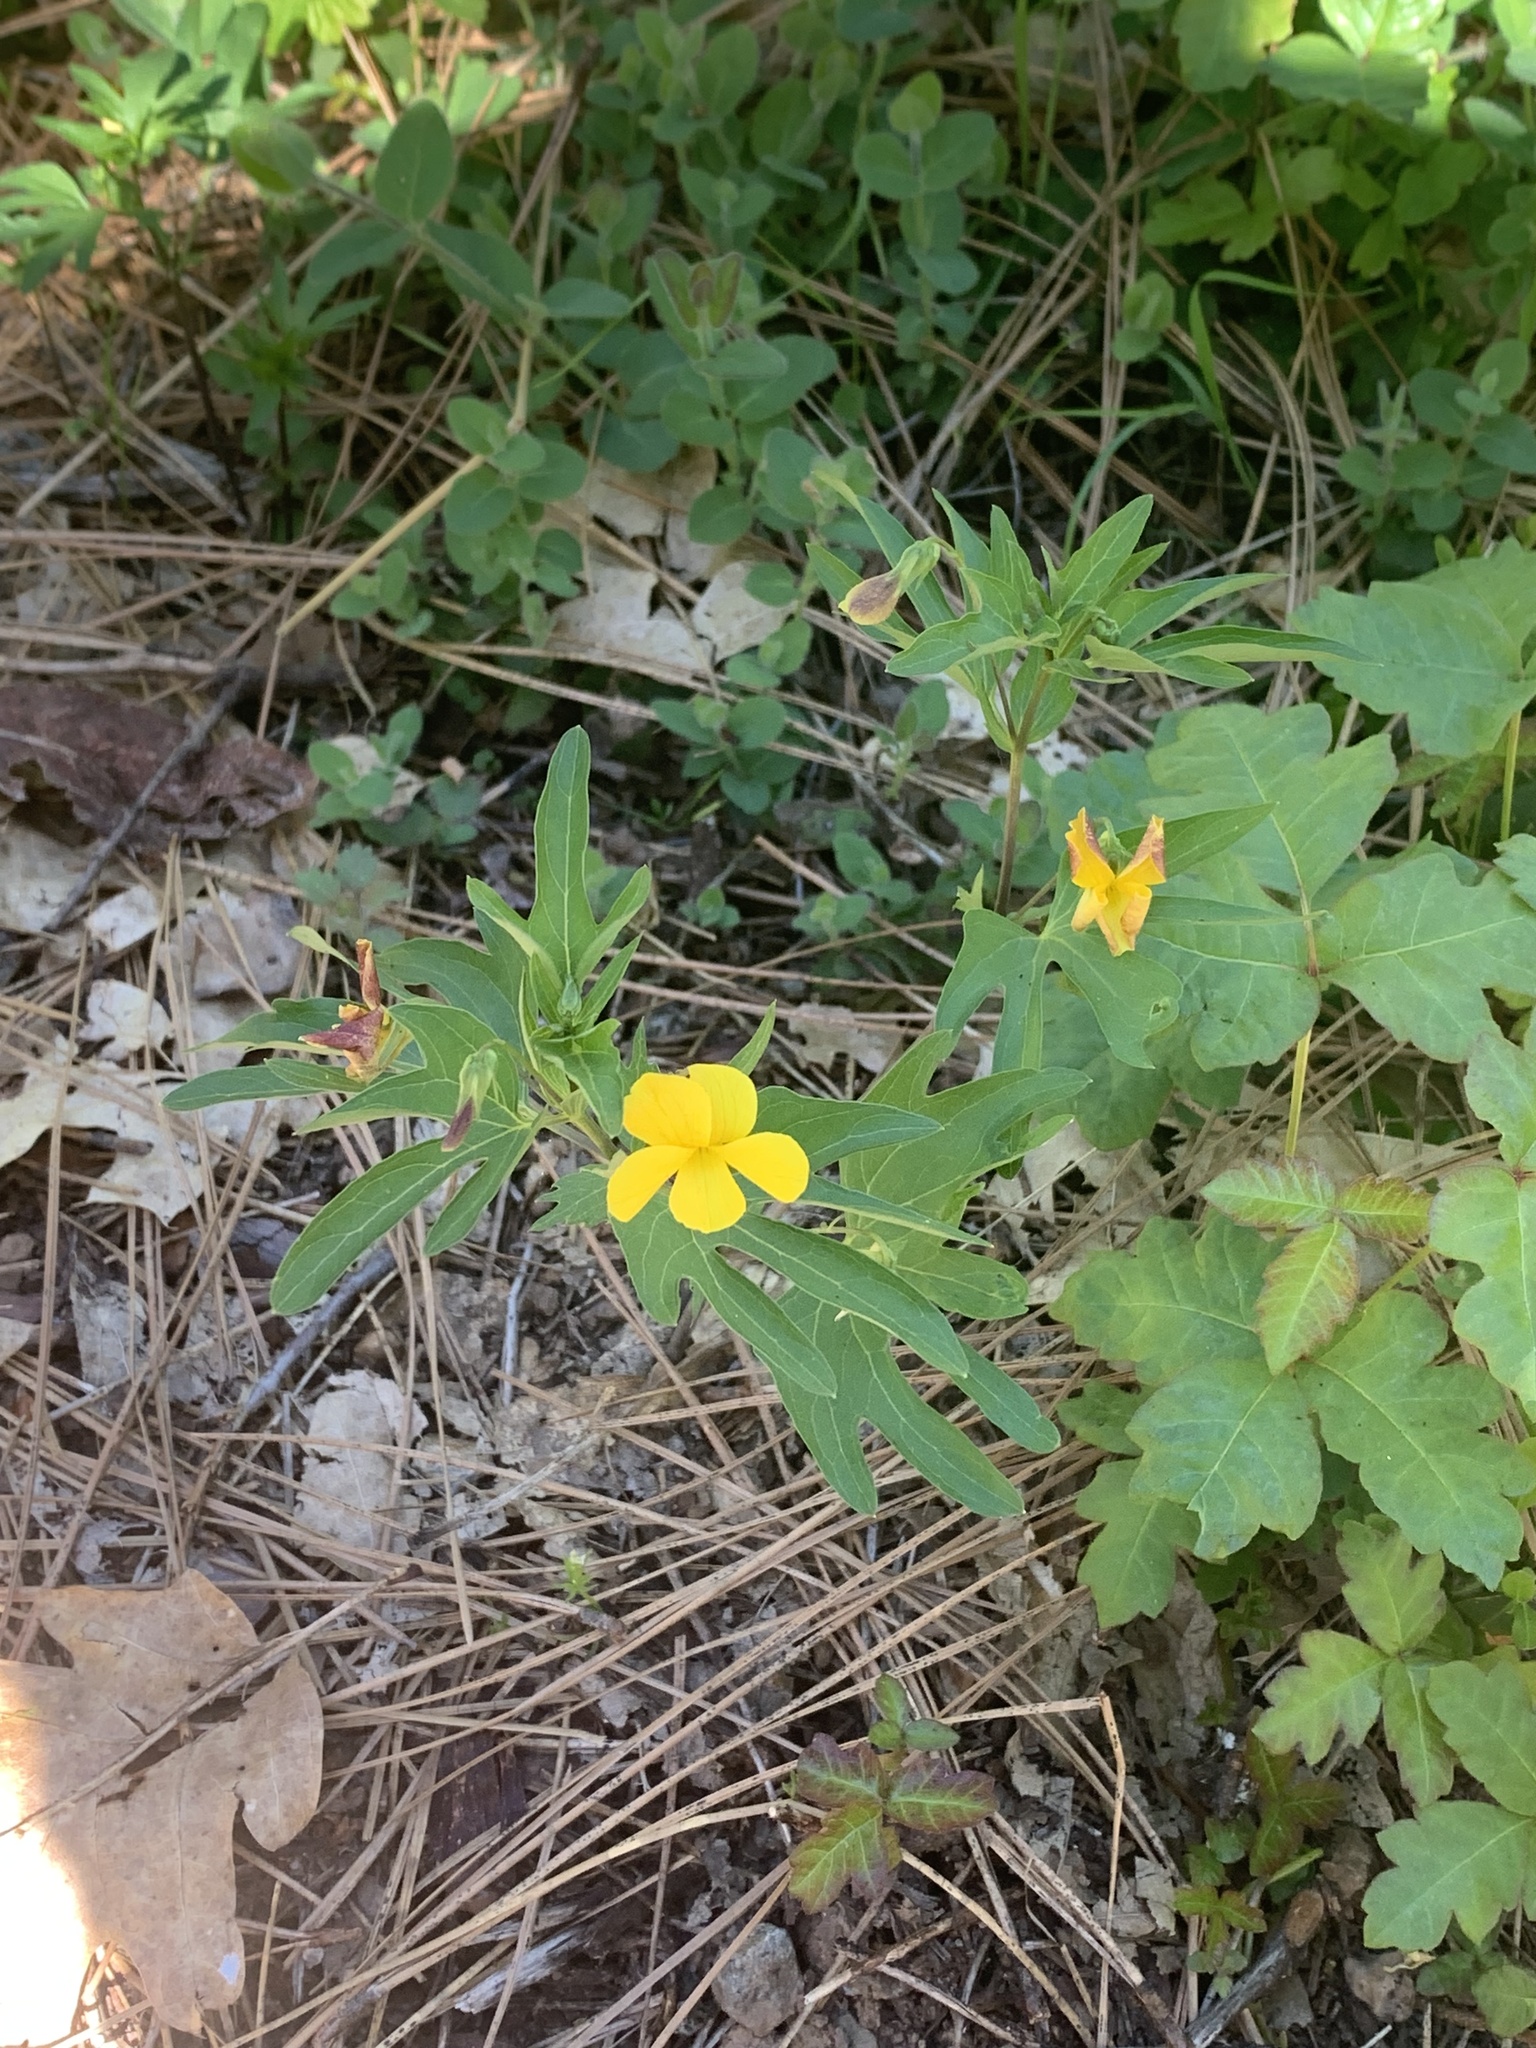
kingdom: Plantae
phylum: Tracheophyta
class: Magnoliopsida
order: Malpighiales
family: Violaceae
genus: Viola
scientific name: Viola lobata
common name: Pine violet
